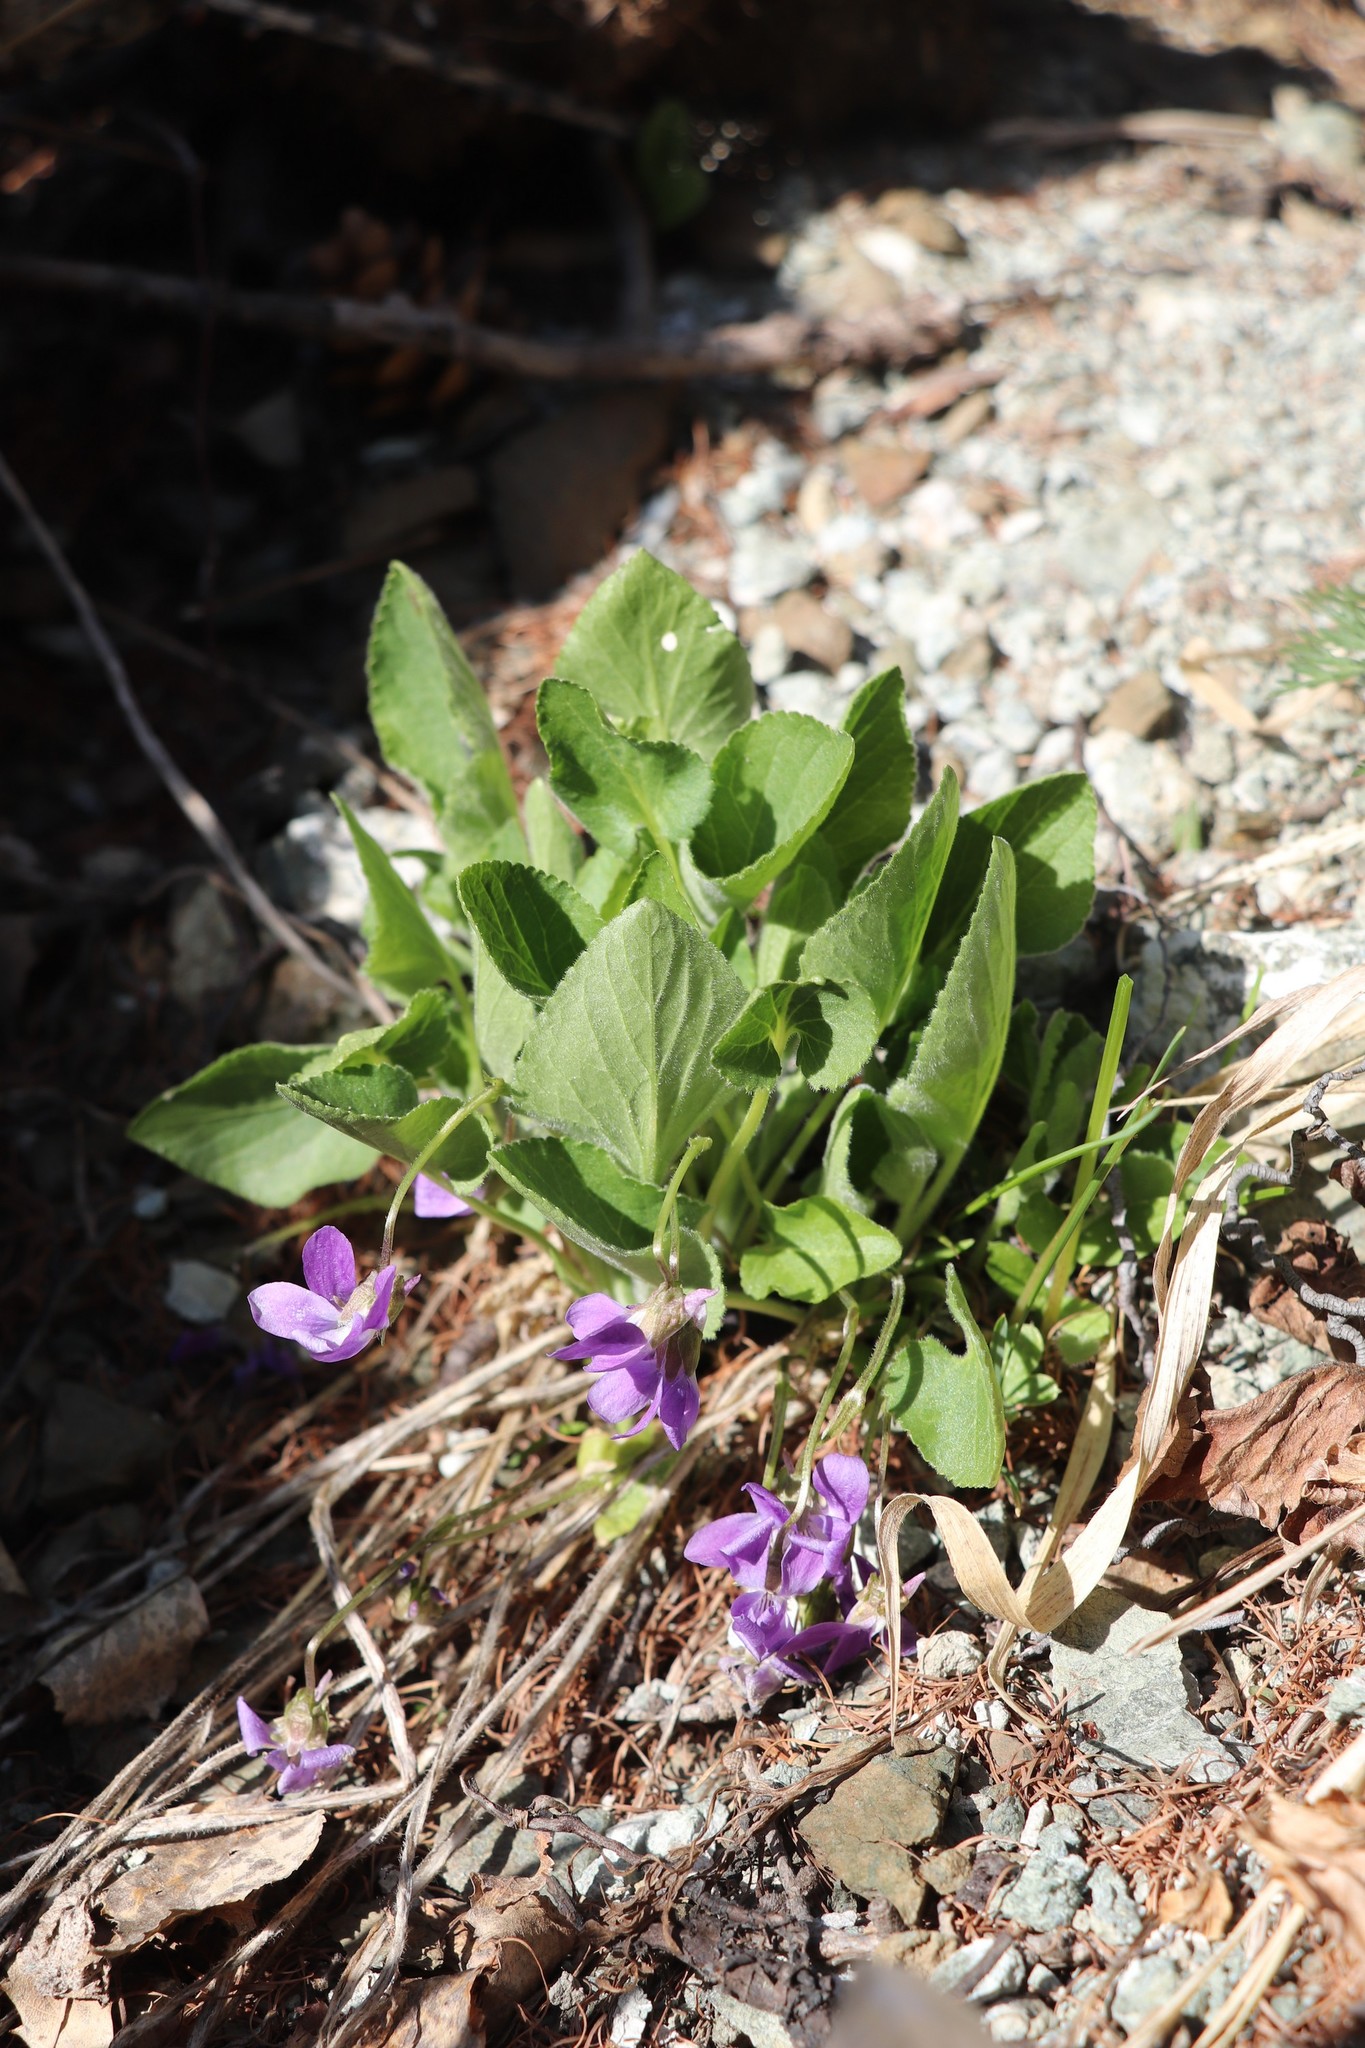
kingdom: Plantae
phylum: Tracheophyta
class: Magnoliopsida
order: Malpighiales
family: Violaceae
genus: Viola
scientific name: Viola hirta
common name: Hairy violet
